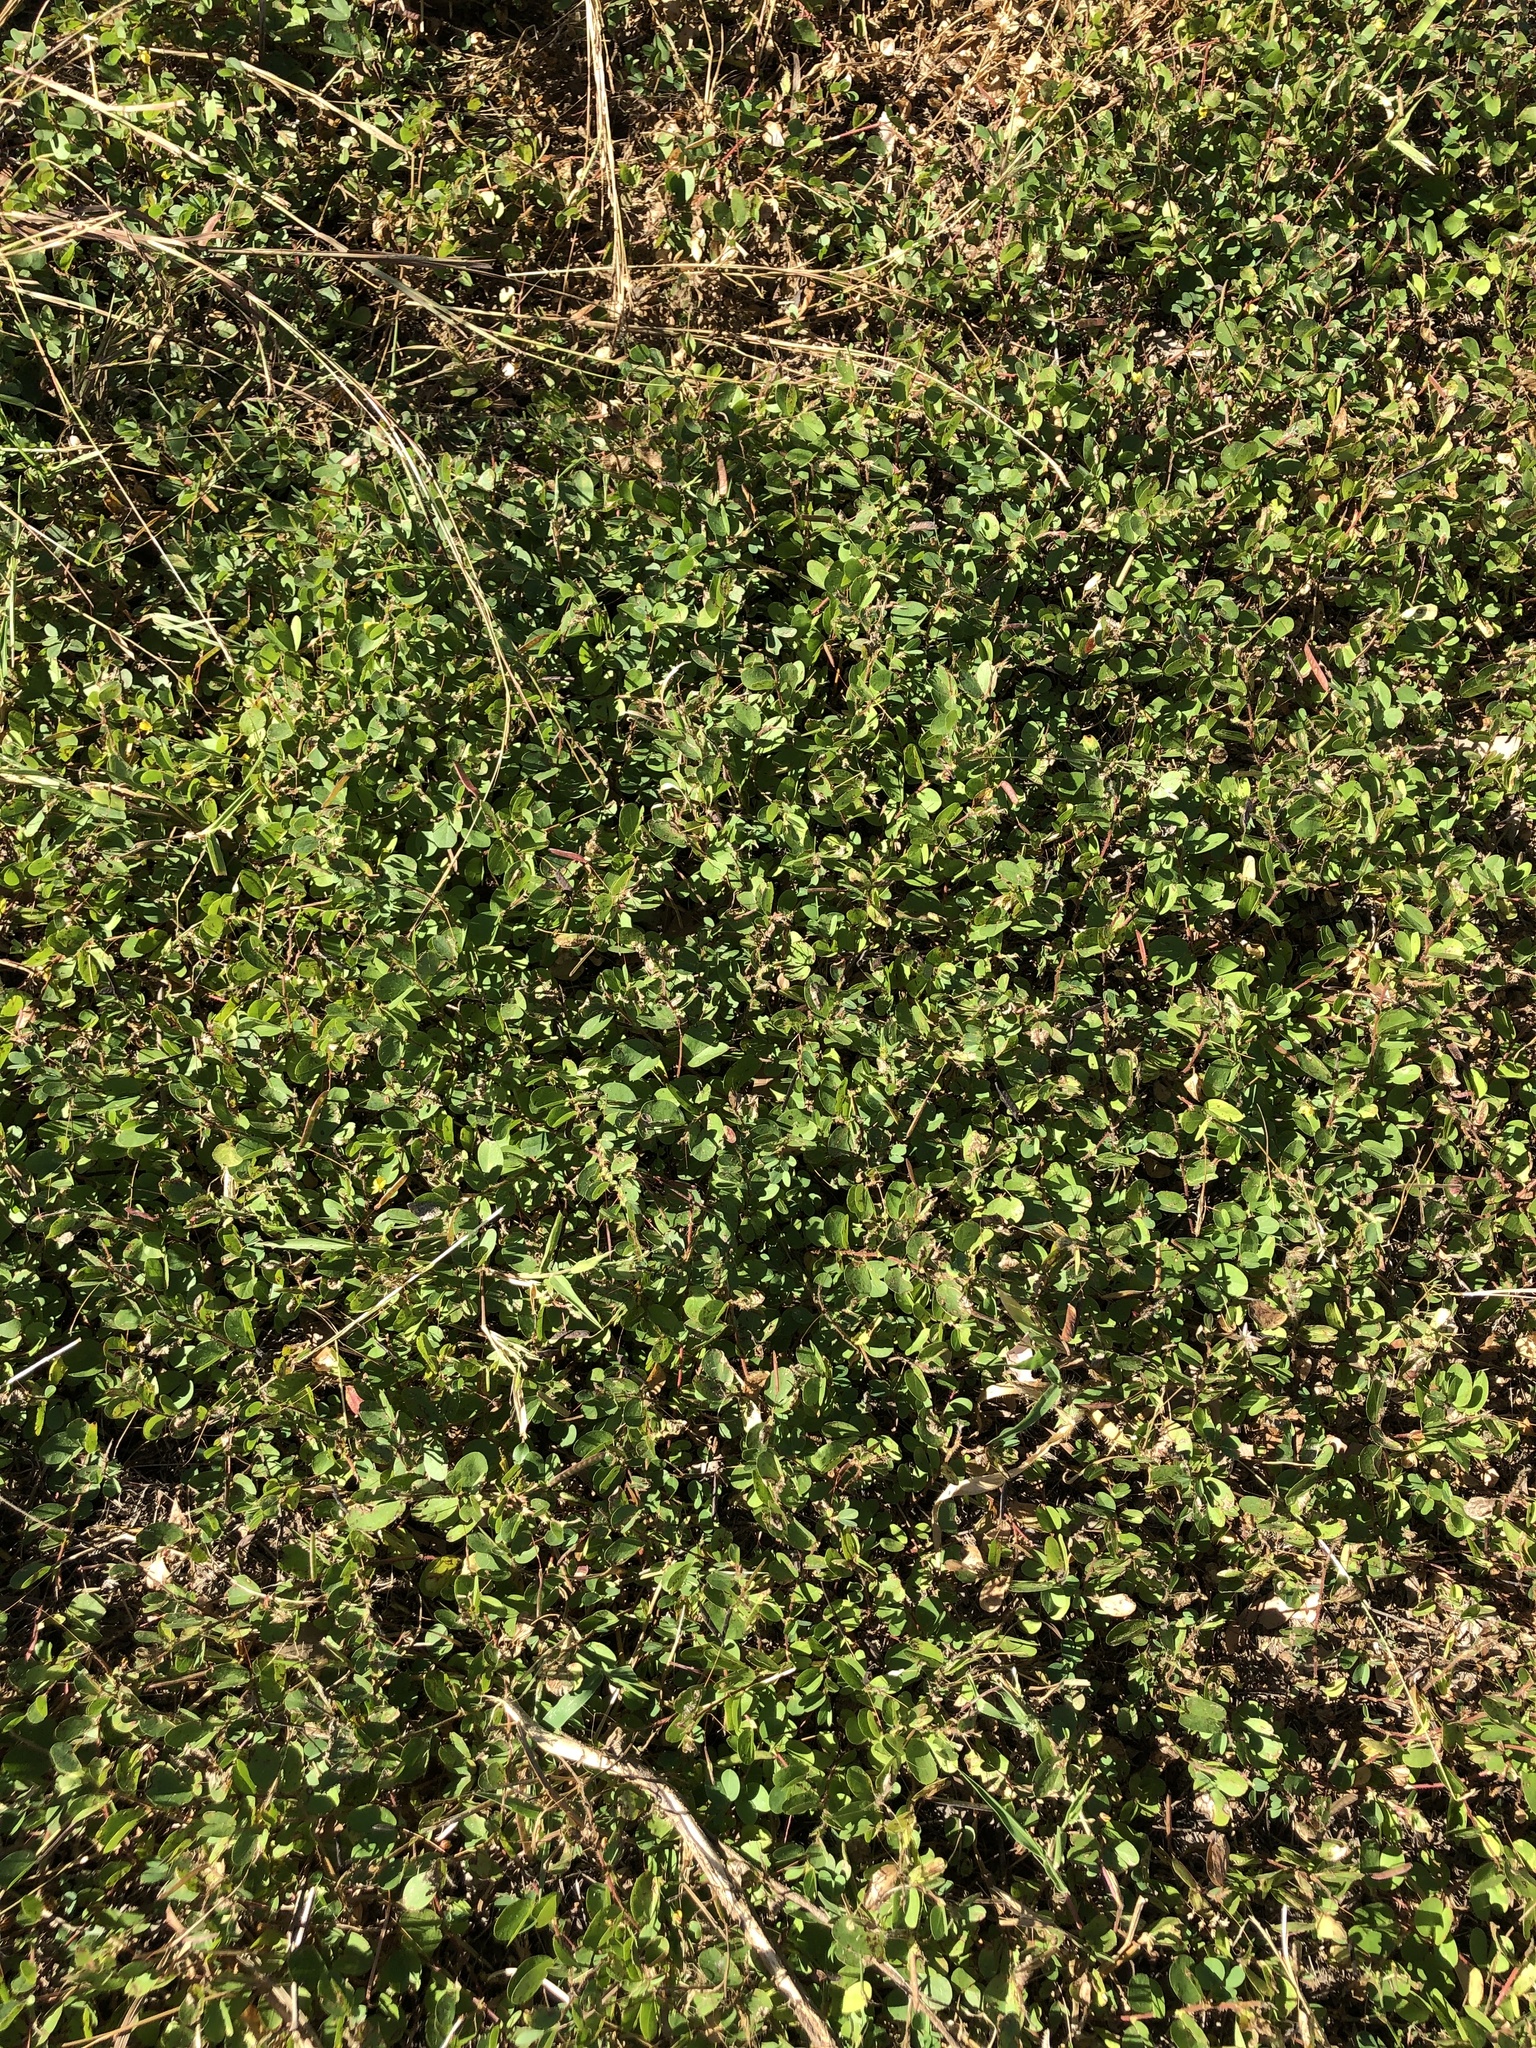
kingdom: Plantae
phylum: Tracheophyta
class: Magnoliopsida
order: Fabales
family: Fabaceae
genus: Chamaecrista
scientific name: Chamaecrista rotundifolia
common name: Round-leaf cassia
